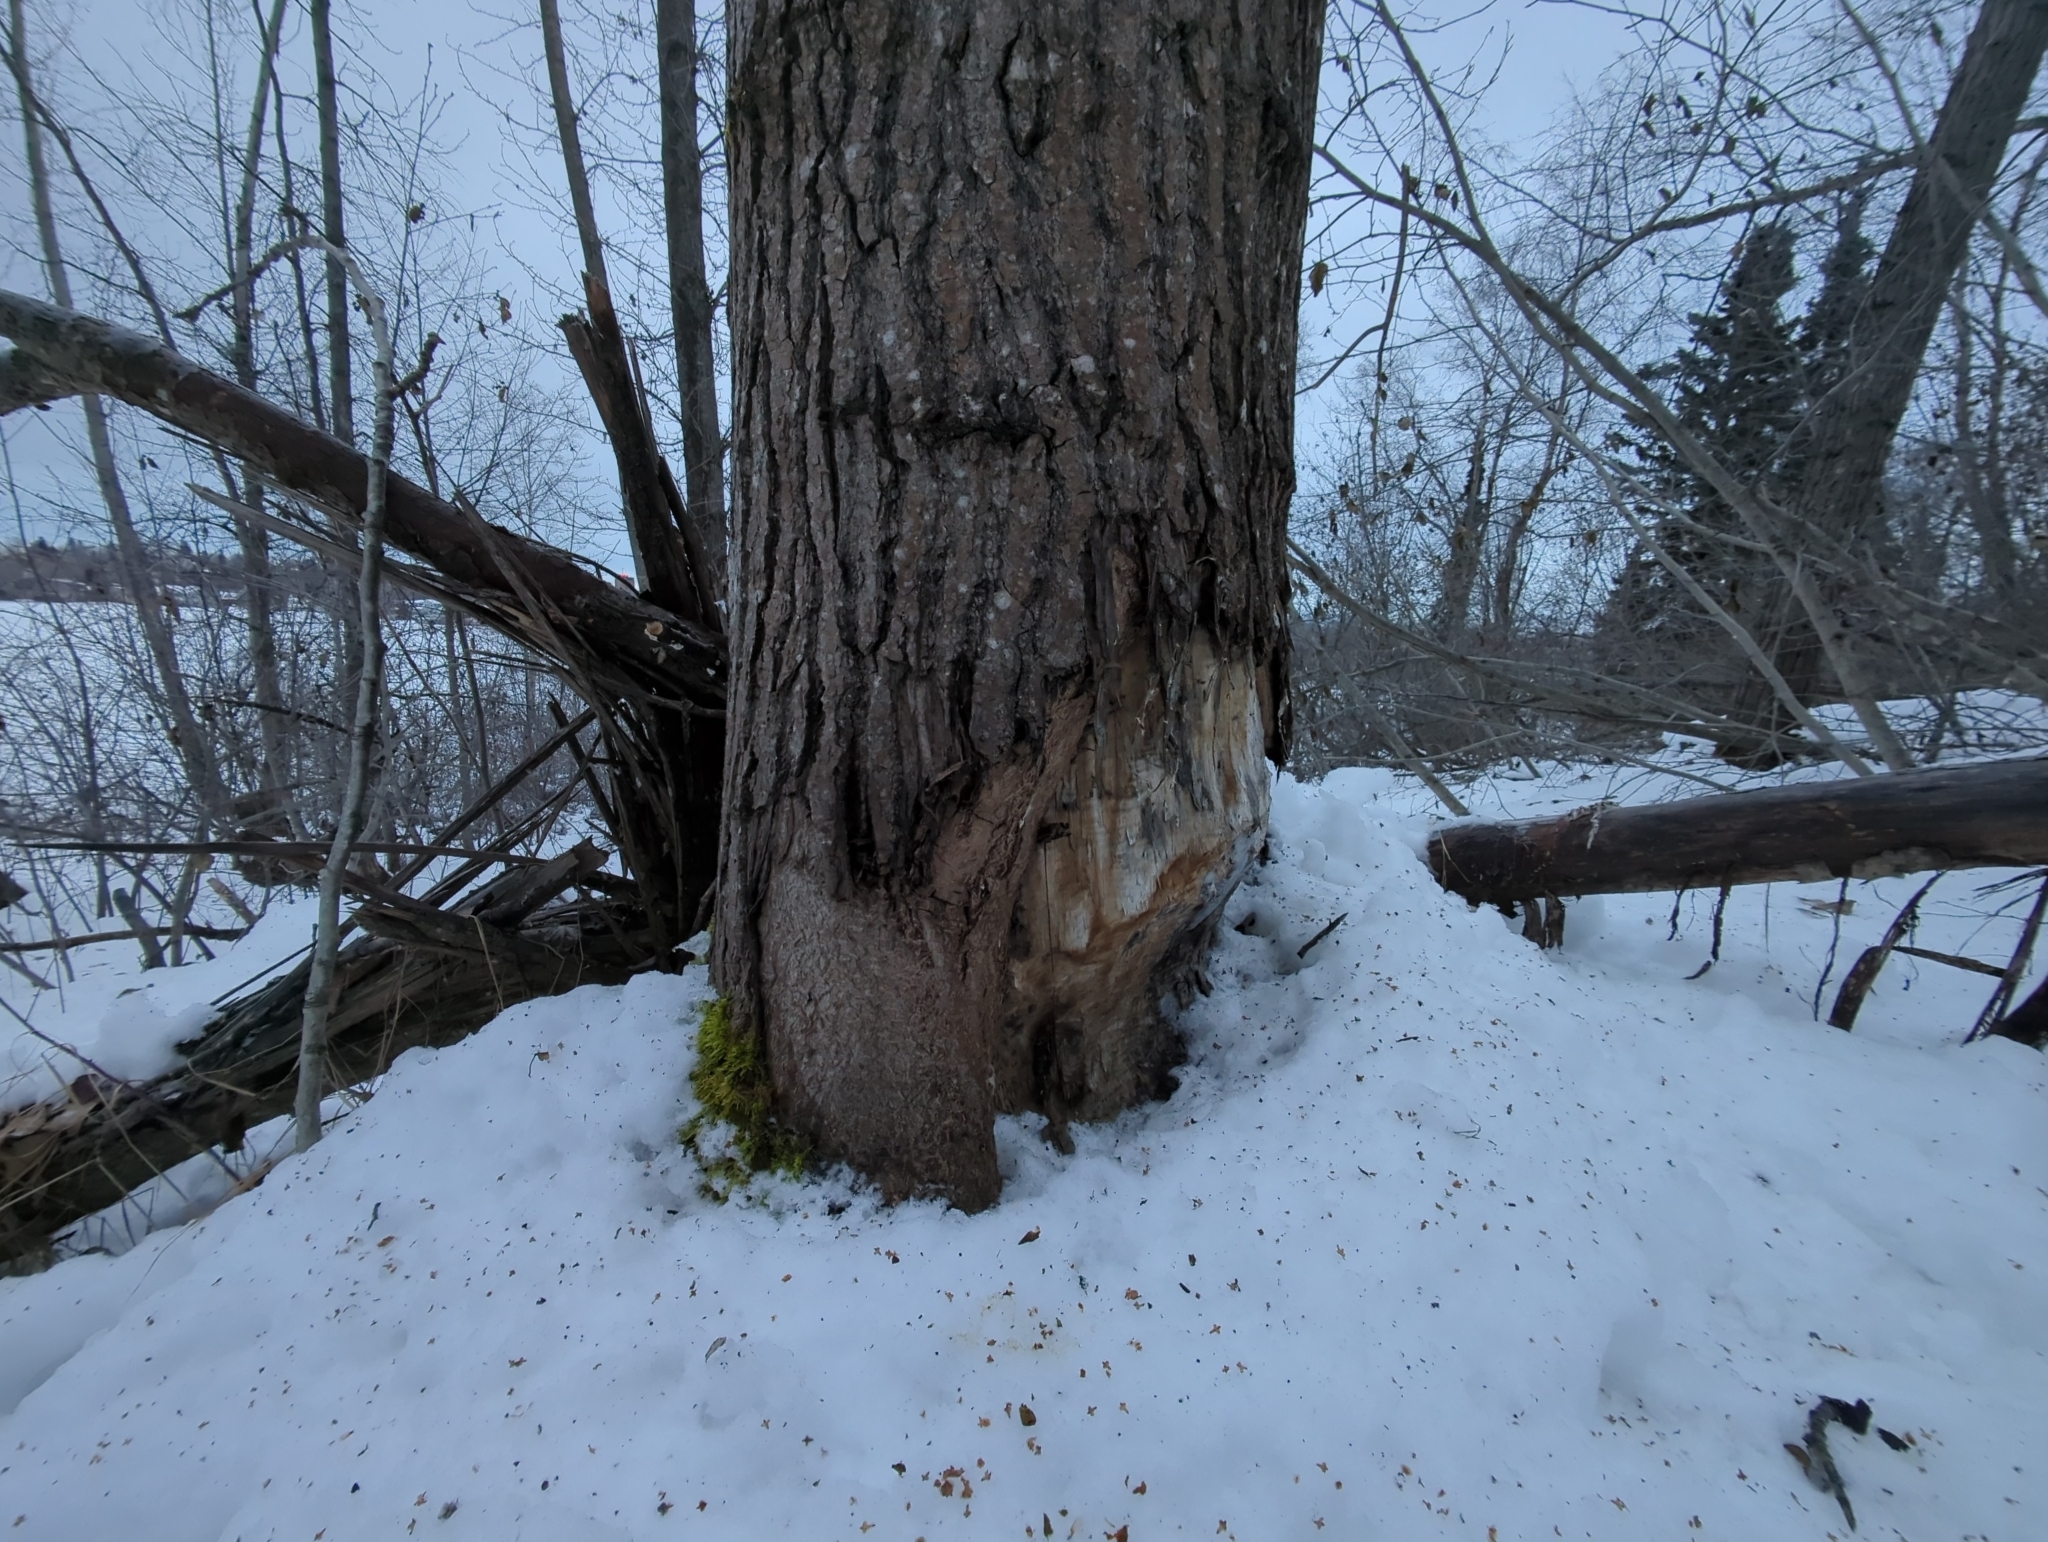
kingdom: Animalia
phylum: Chordata
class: Mammalia
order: Rodentia
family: Castoridae
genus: Castor
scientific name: Castor canadensis
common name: American beaver
